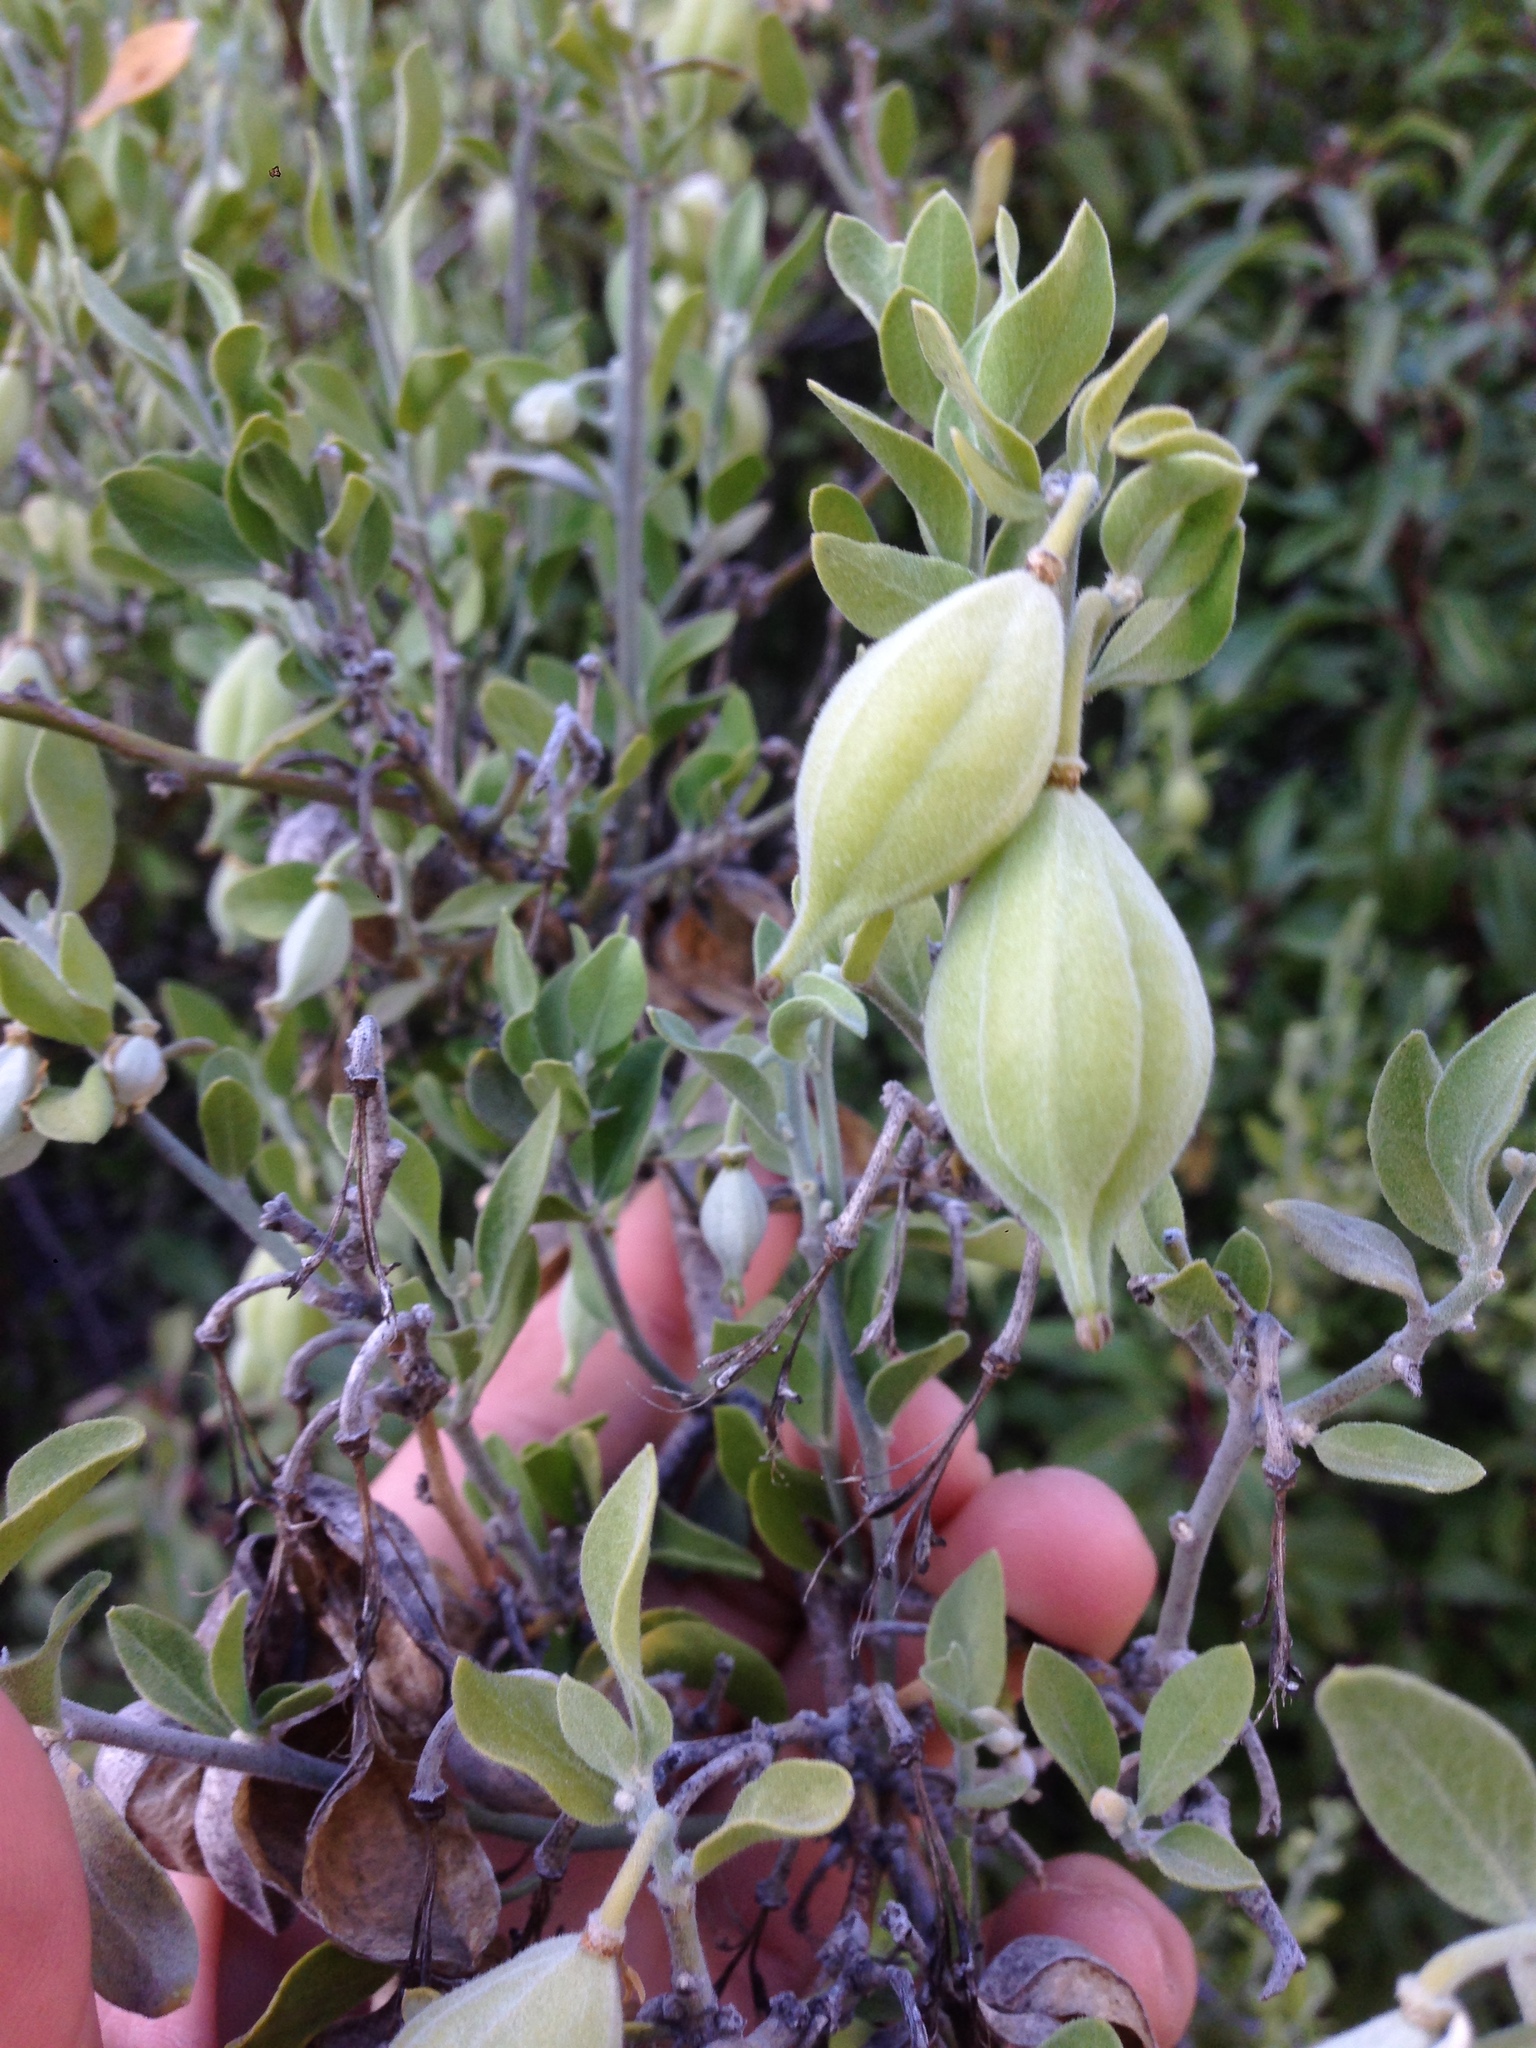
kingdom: Plantae
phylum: Tracheophyta
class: Magnoliopsida
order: Zygophyllales
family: Zygophyllaceae
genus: Viscainoa
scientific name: Viscainoa geniculata
